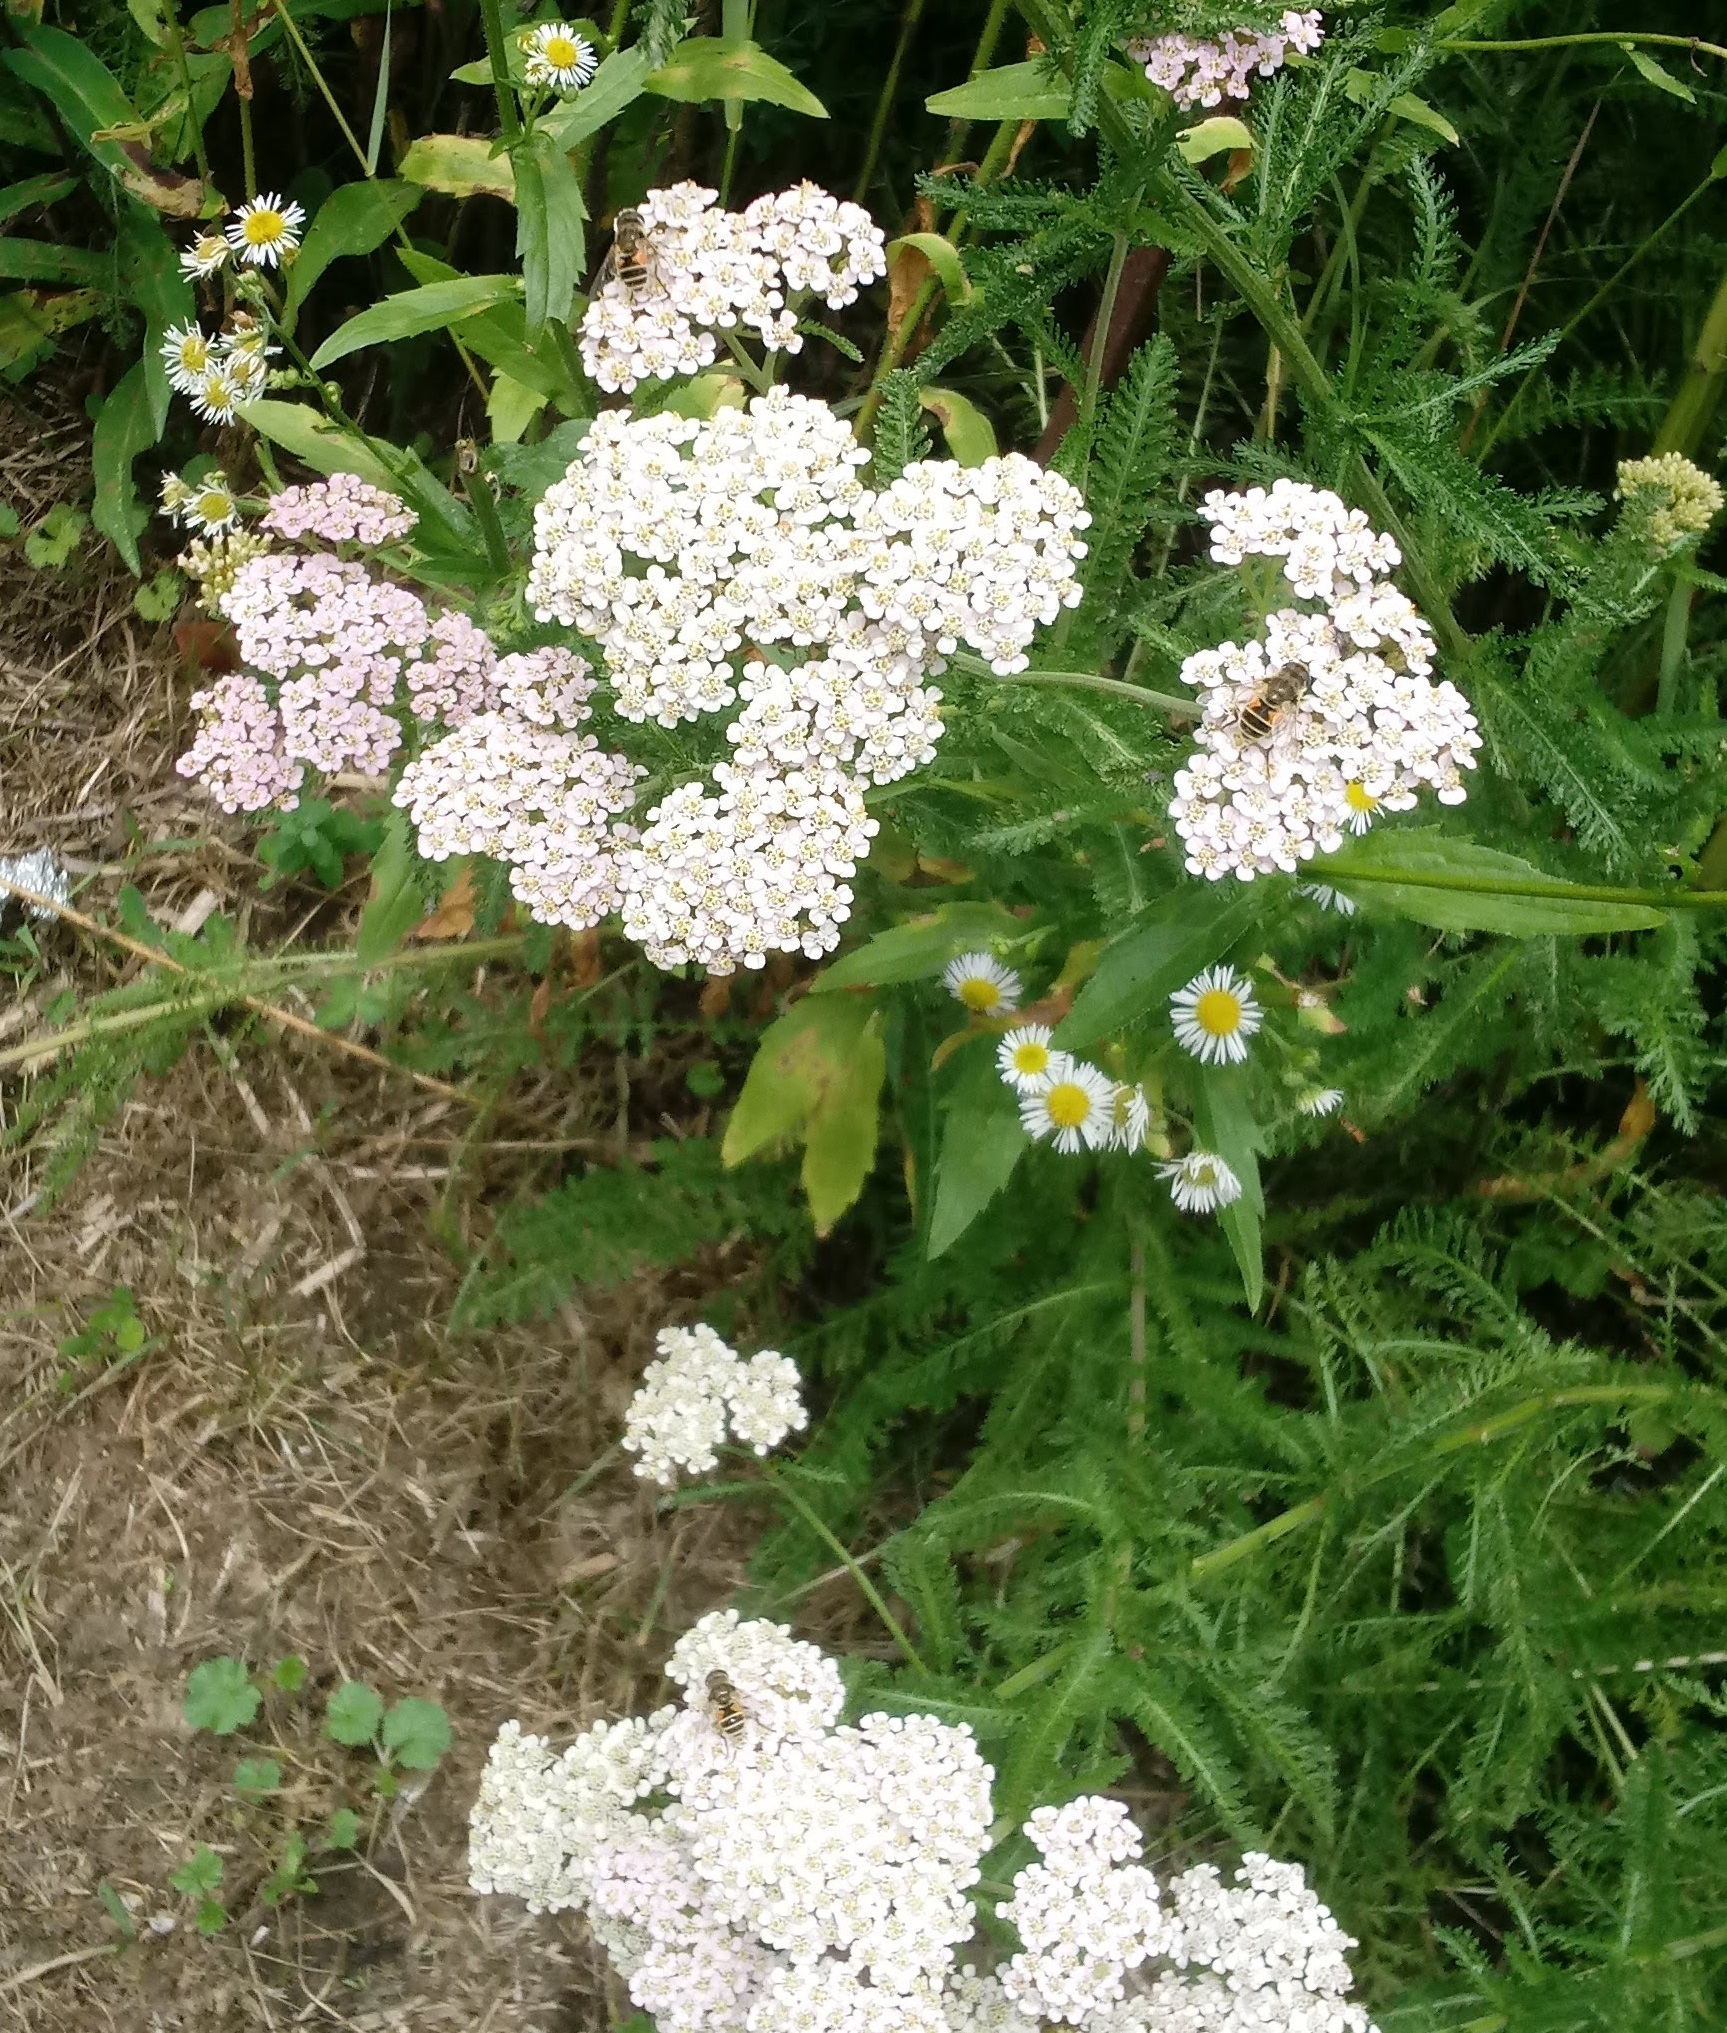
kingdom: Animalia
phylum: Arthropoda
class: Insecta
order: Diptera
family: Syrphidae
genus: Eristalis
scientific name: Eristalis arbustorum
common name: Hover fly
